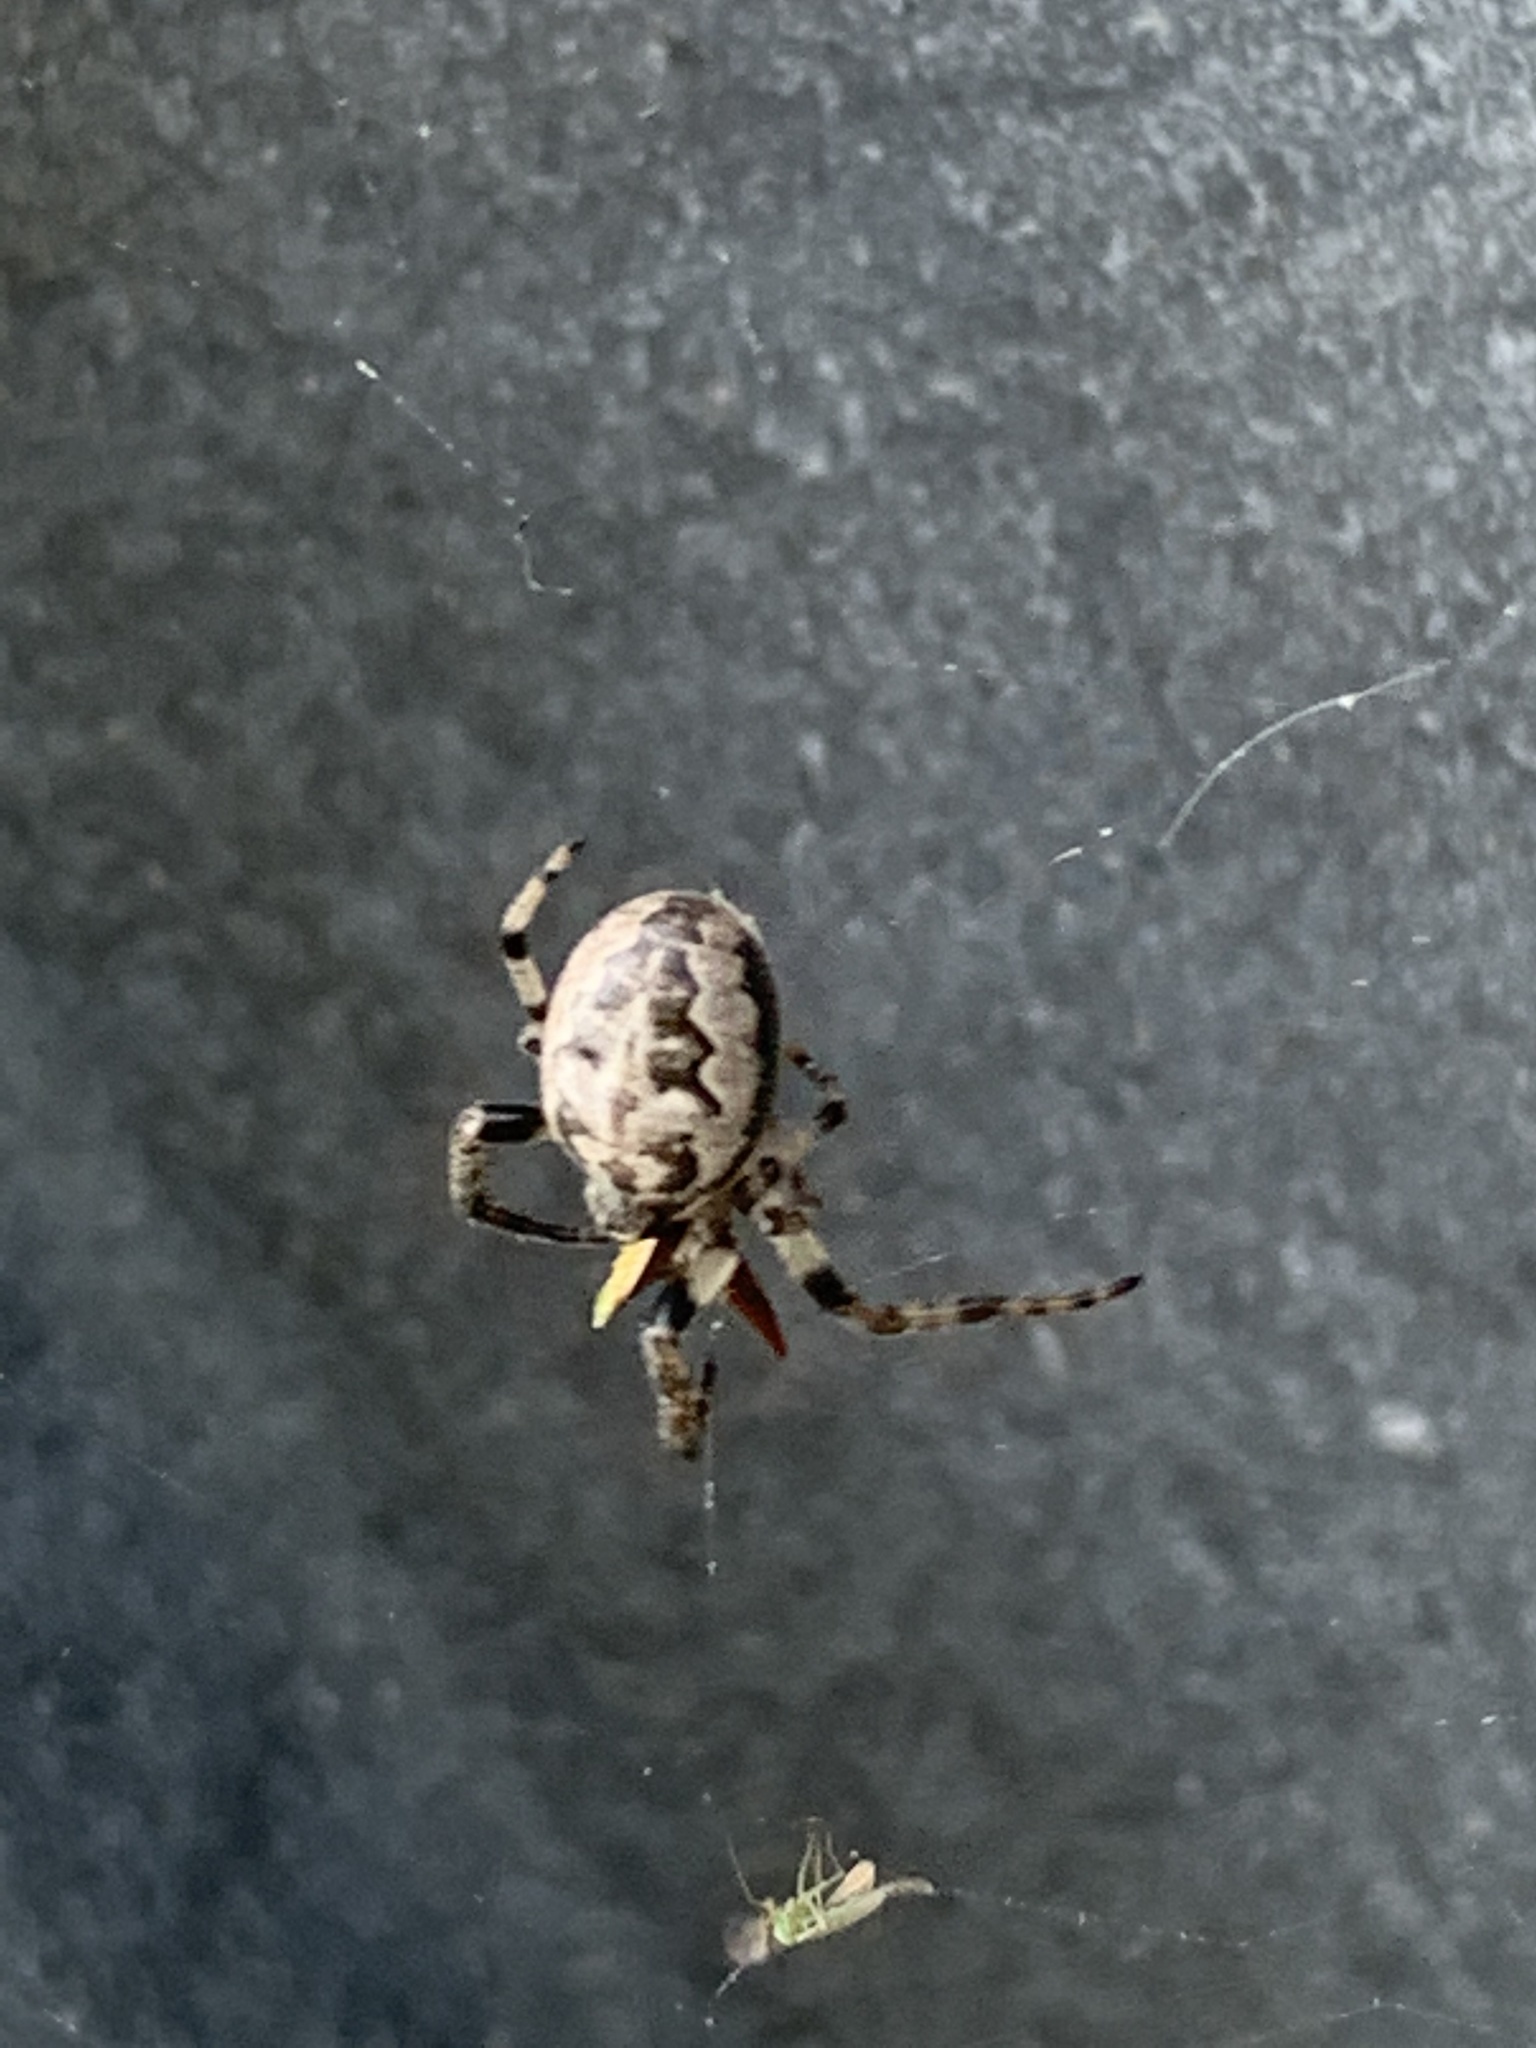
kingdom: Animalia
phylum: Arthropoda
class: Arachnida
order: Araneae
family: Araneidae
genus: Larinioides
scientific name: Larinioides cornutus
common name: Furrow orbweaver
